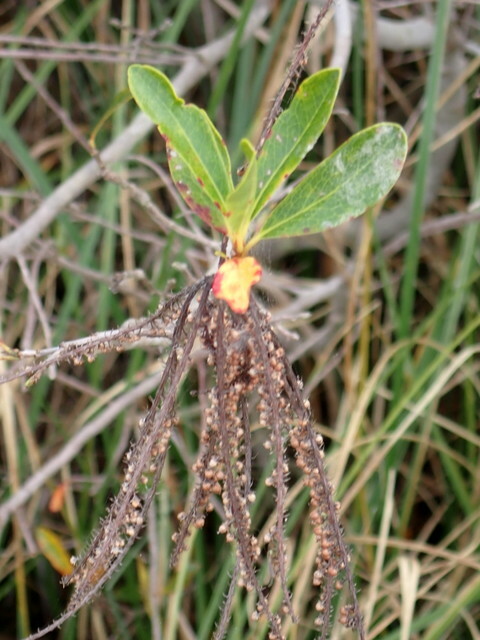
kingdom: Plantae
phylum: Tracheophyta
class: Magnoliopsida
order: Ericales
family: Cyrillaceae
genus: Cyrilla
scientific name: Cyrilla racemiflora
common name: Black titi
